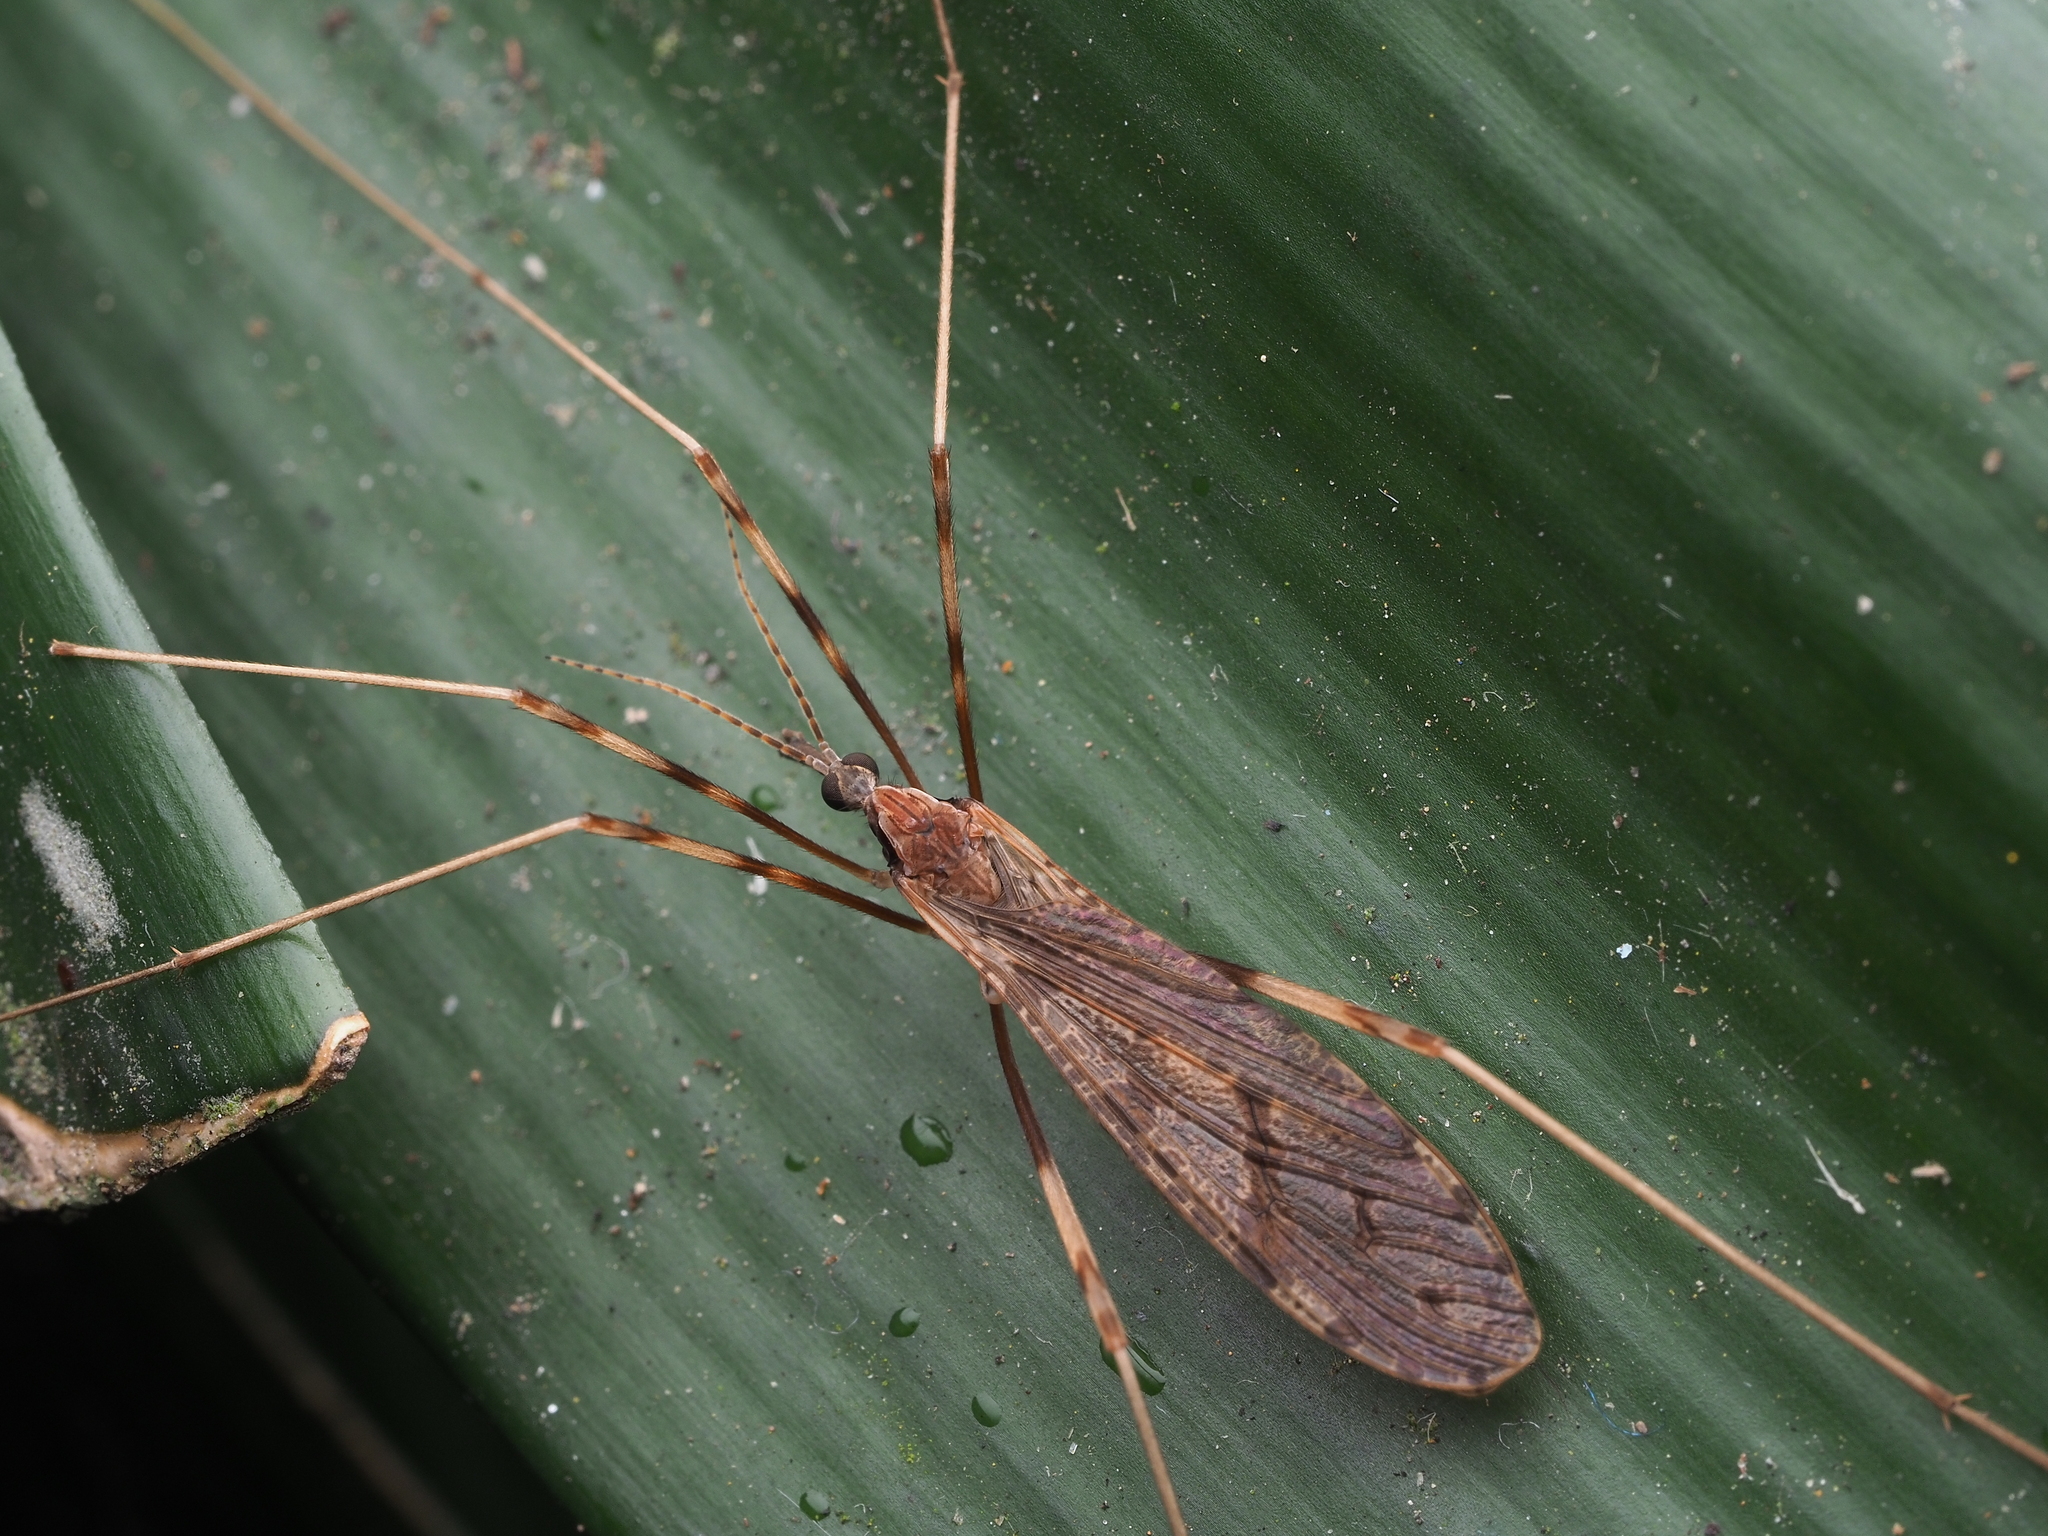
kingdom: Animalia
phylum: Arthropoda
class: Insecta
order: Diptera
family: Limoniidae
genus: Rhamphophila
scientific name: Rhamphophila sinistra
